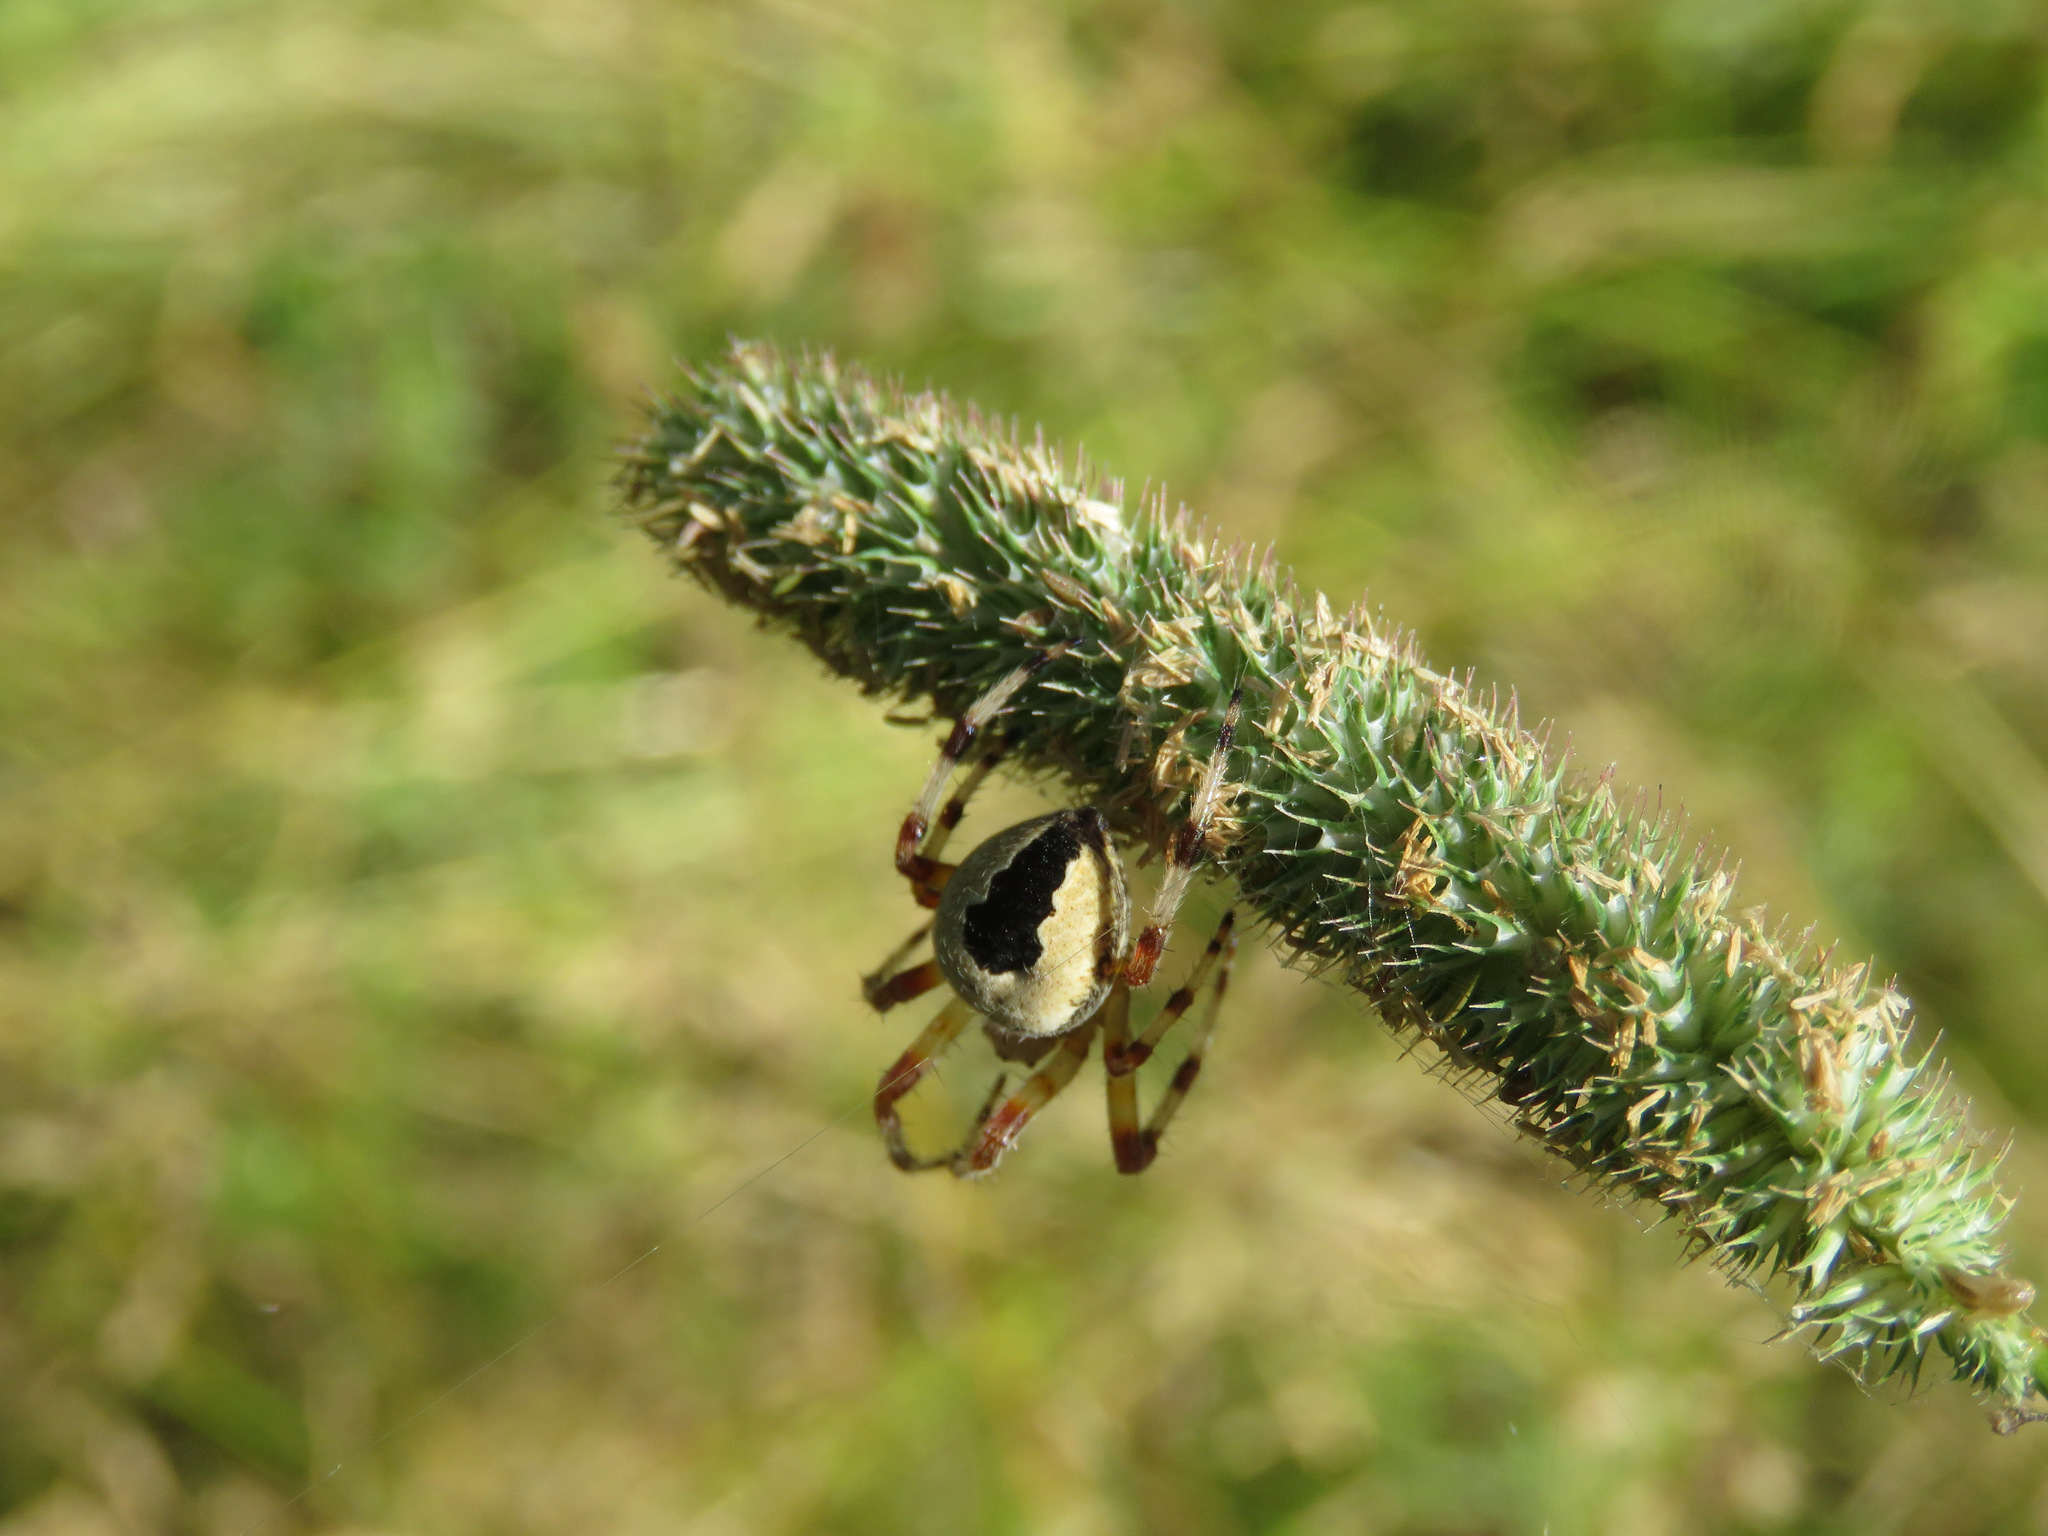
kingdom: Animalia
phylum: Arthropoda
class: Arachnida
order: Araneae
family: Araneidae
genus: Araneus
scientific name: Araneus marmoreus
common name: Marbled orbweaver
